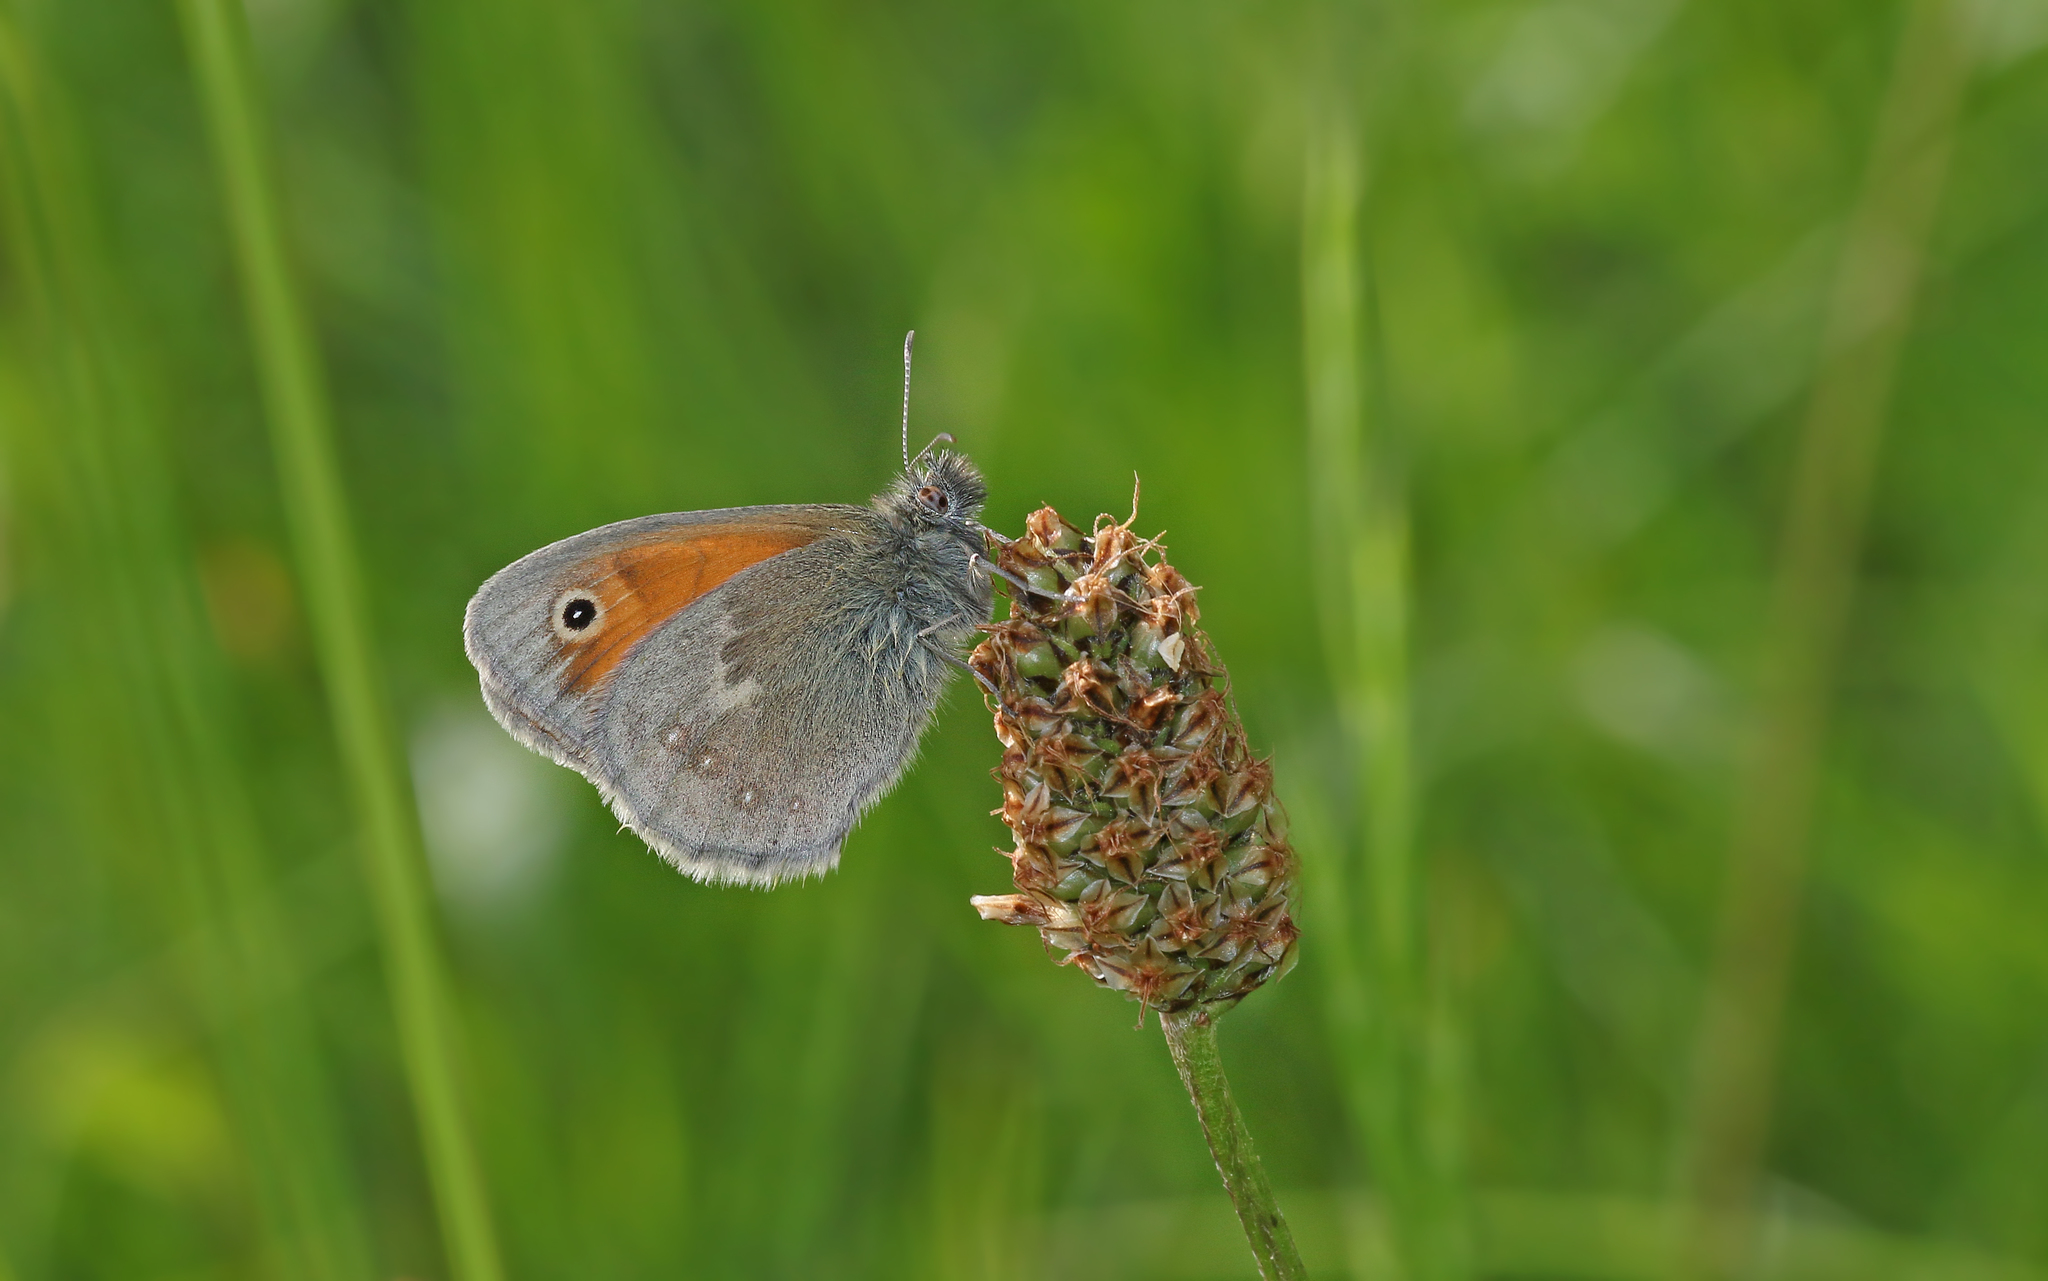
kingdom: Animalia
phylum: Arthropoda
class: Insecta
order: Lepidoptera
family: Nymphalidae
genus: Coenonympha
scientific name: Coenonympha pamphilus
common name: Small heath
